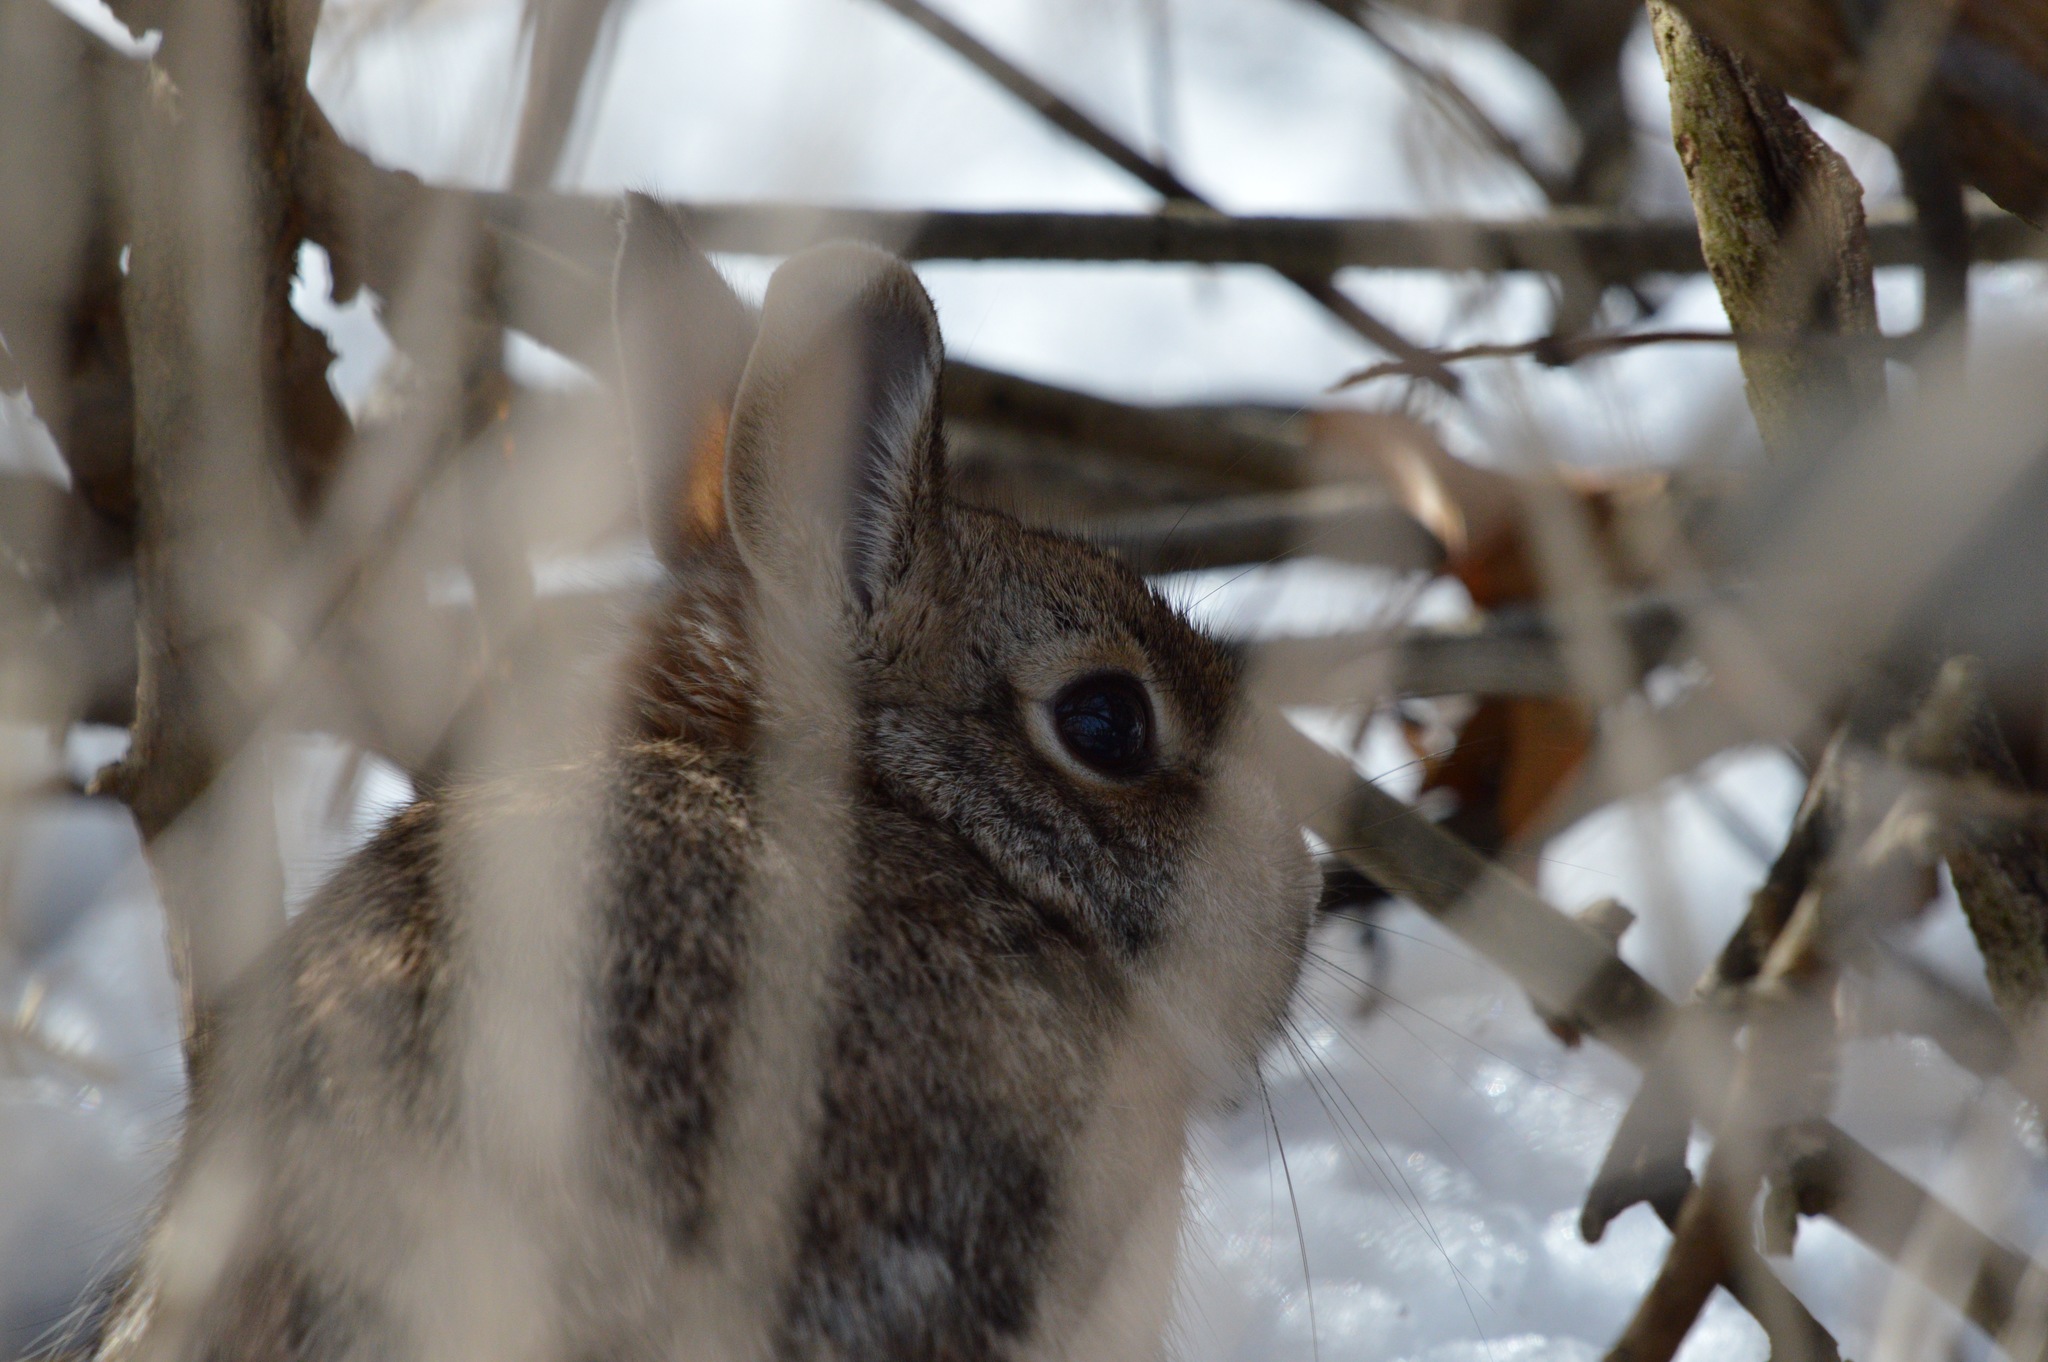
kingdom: Animalia
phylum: Chordata
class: Mammalia
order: Lagomorpha
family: Leporidae
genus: Sylvilagus
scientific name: Sylvilagus floridanus
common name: Eastern cottontail
